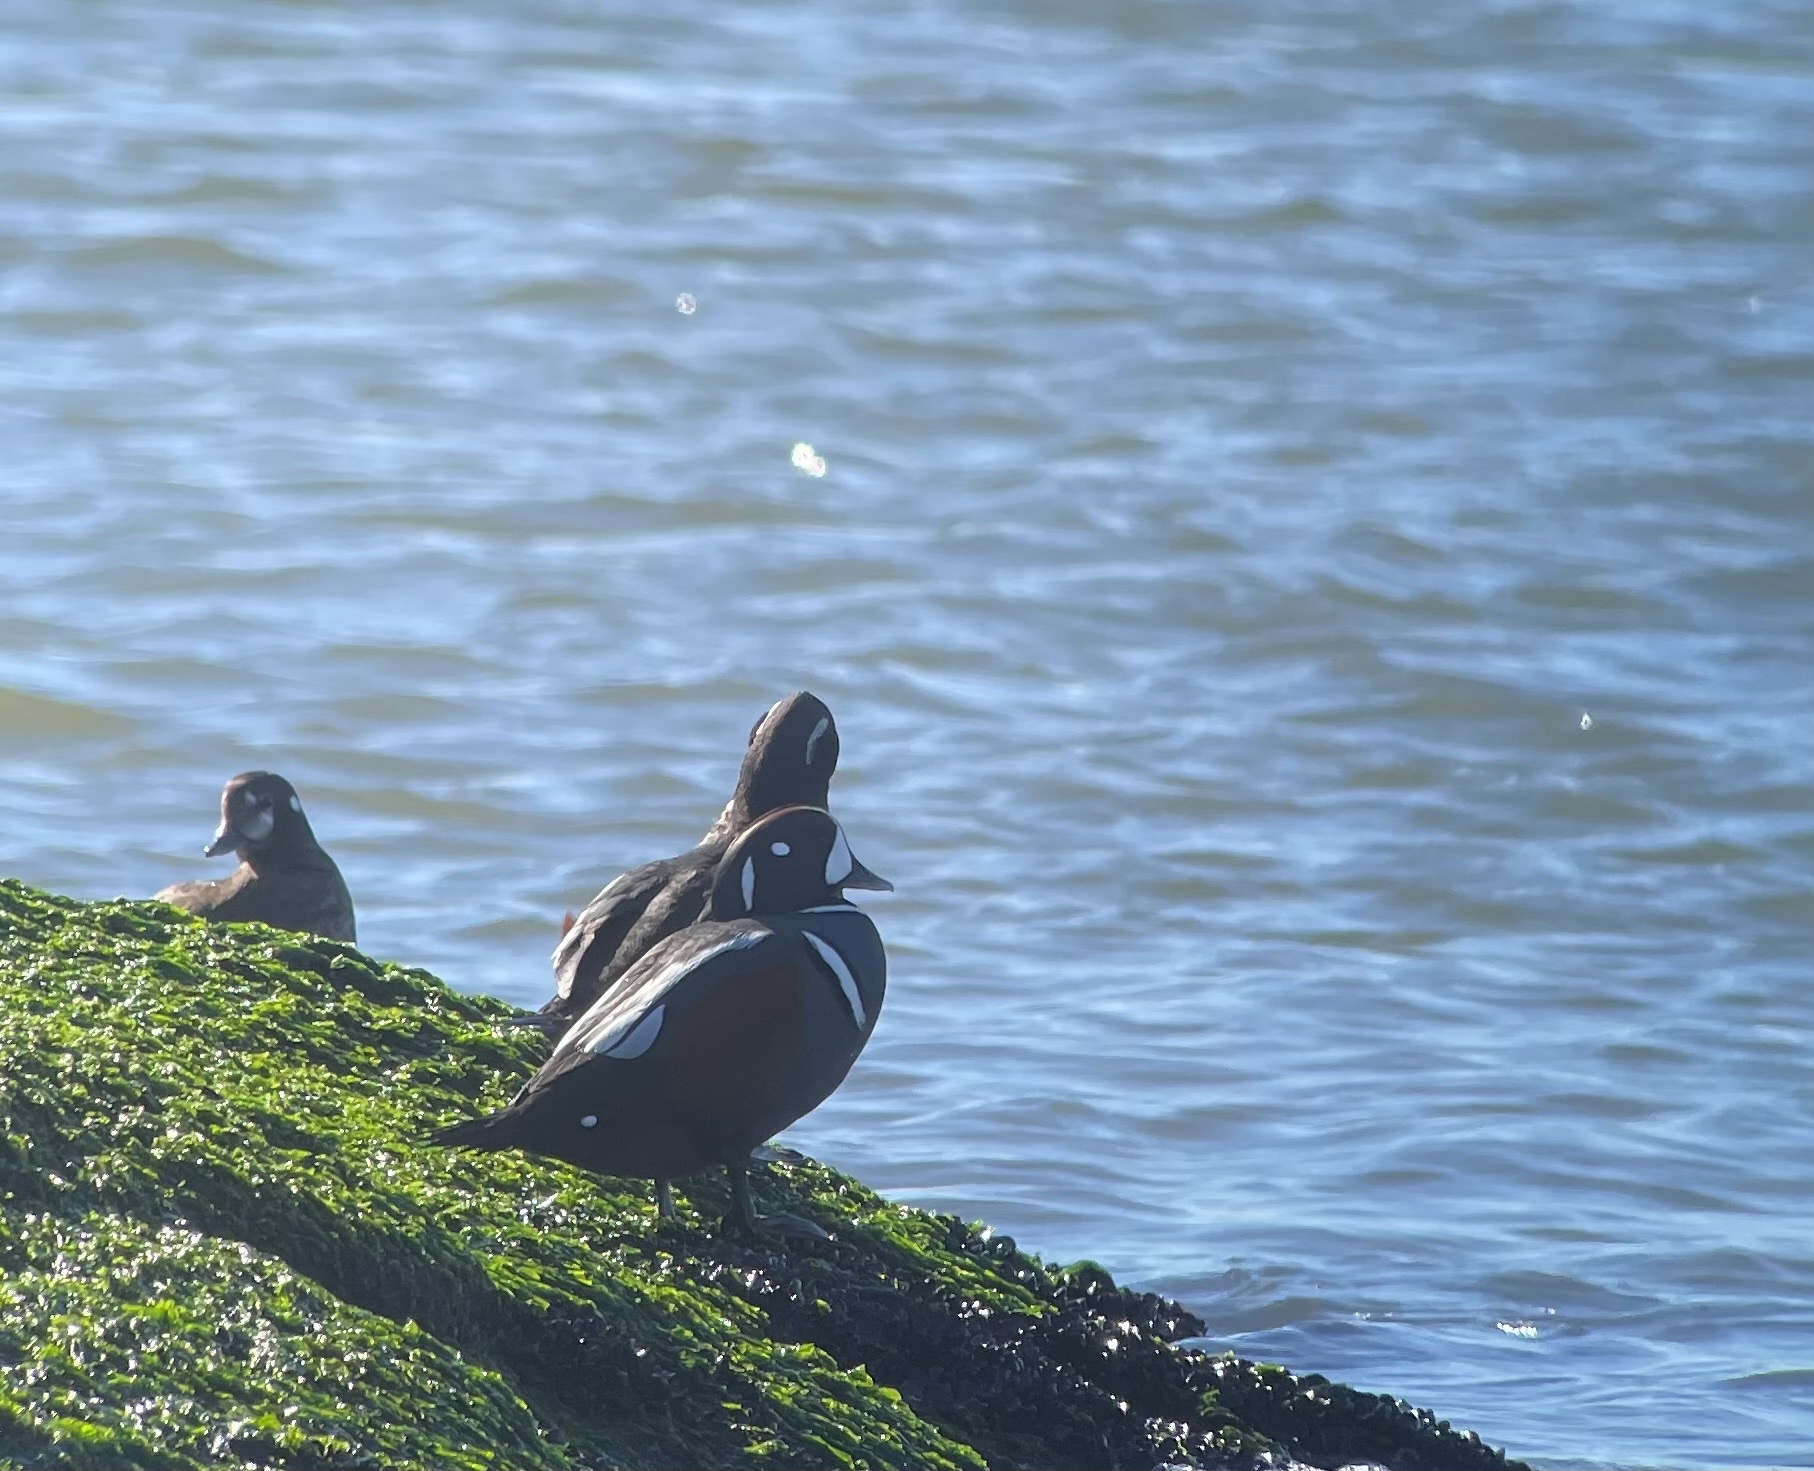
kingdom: Animalia
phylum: Chordata
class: Aves
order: Anseriformes
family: Anatidae
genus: Histrionicus
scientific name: Histrionicus histrionicus
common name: Harlequin duck
